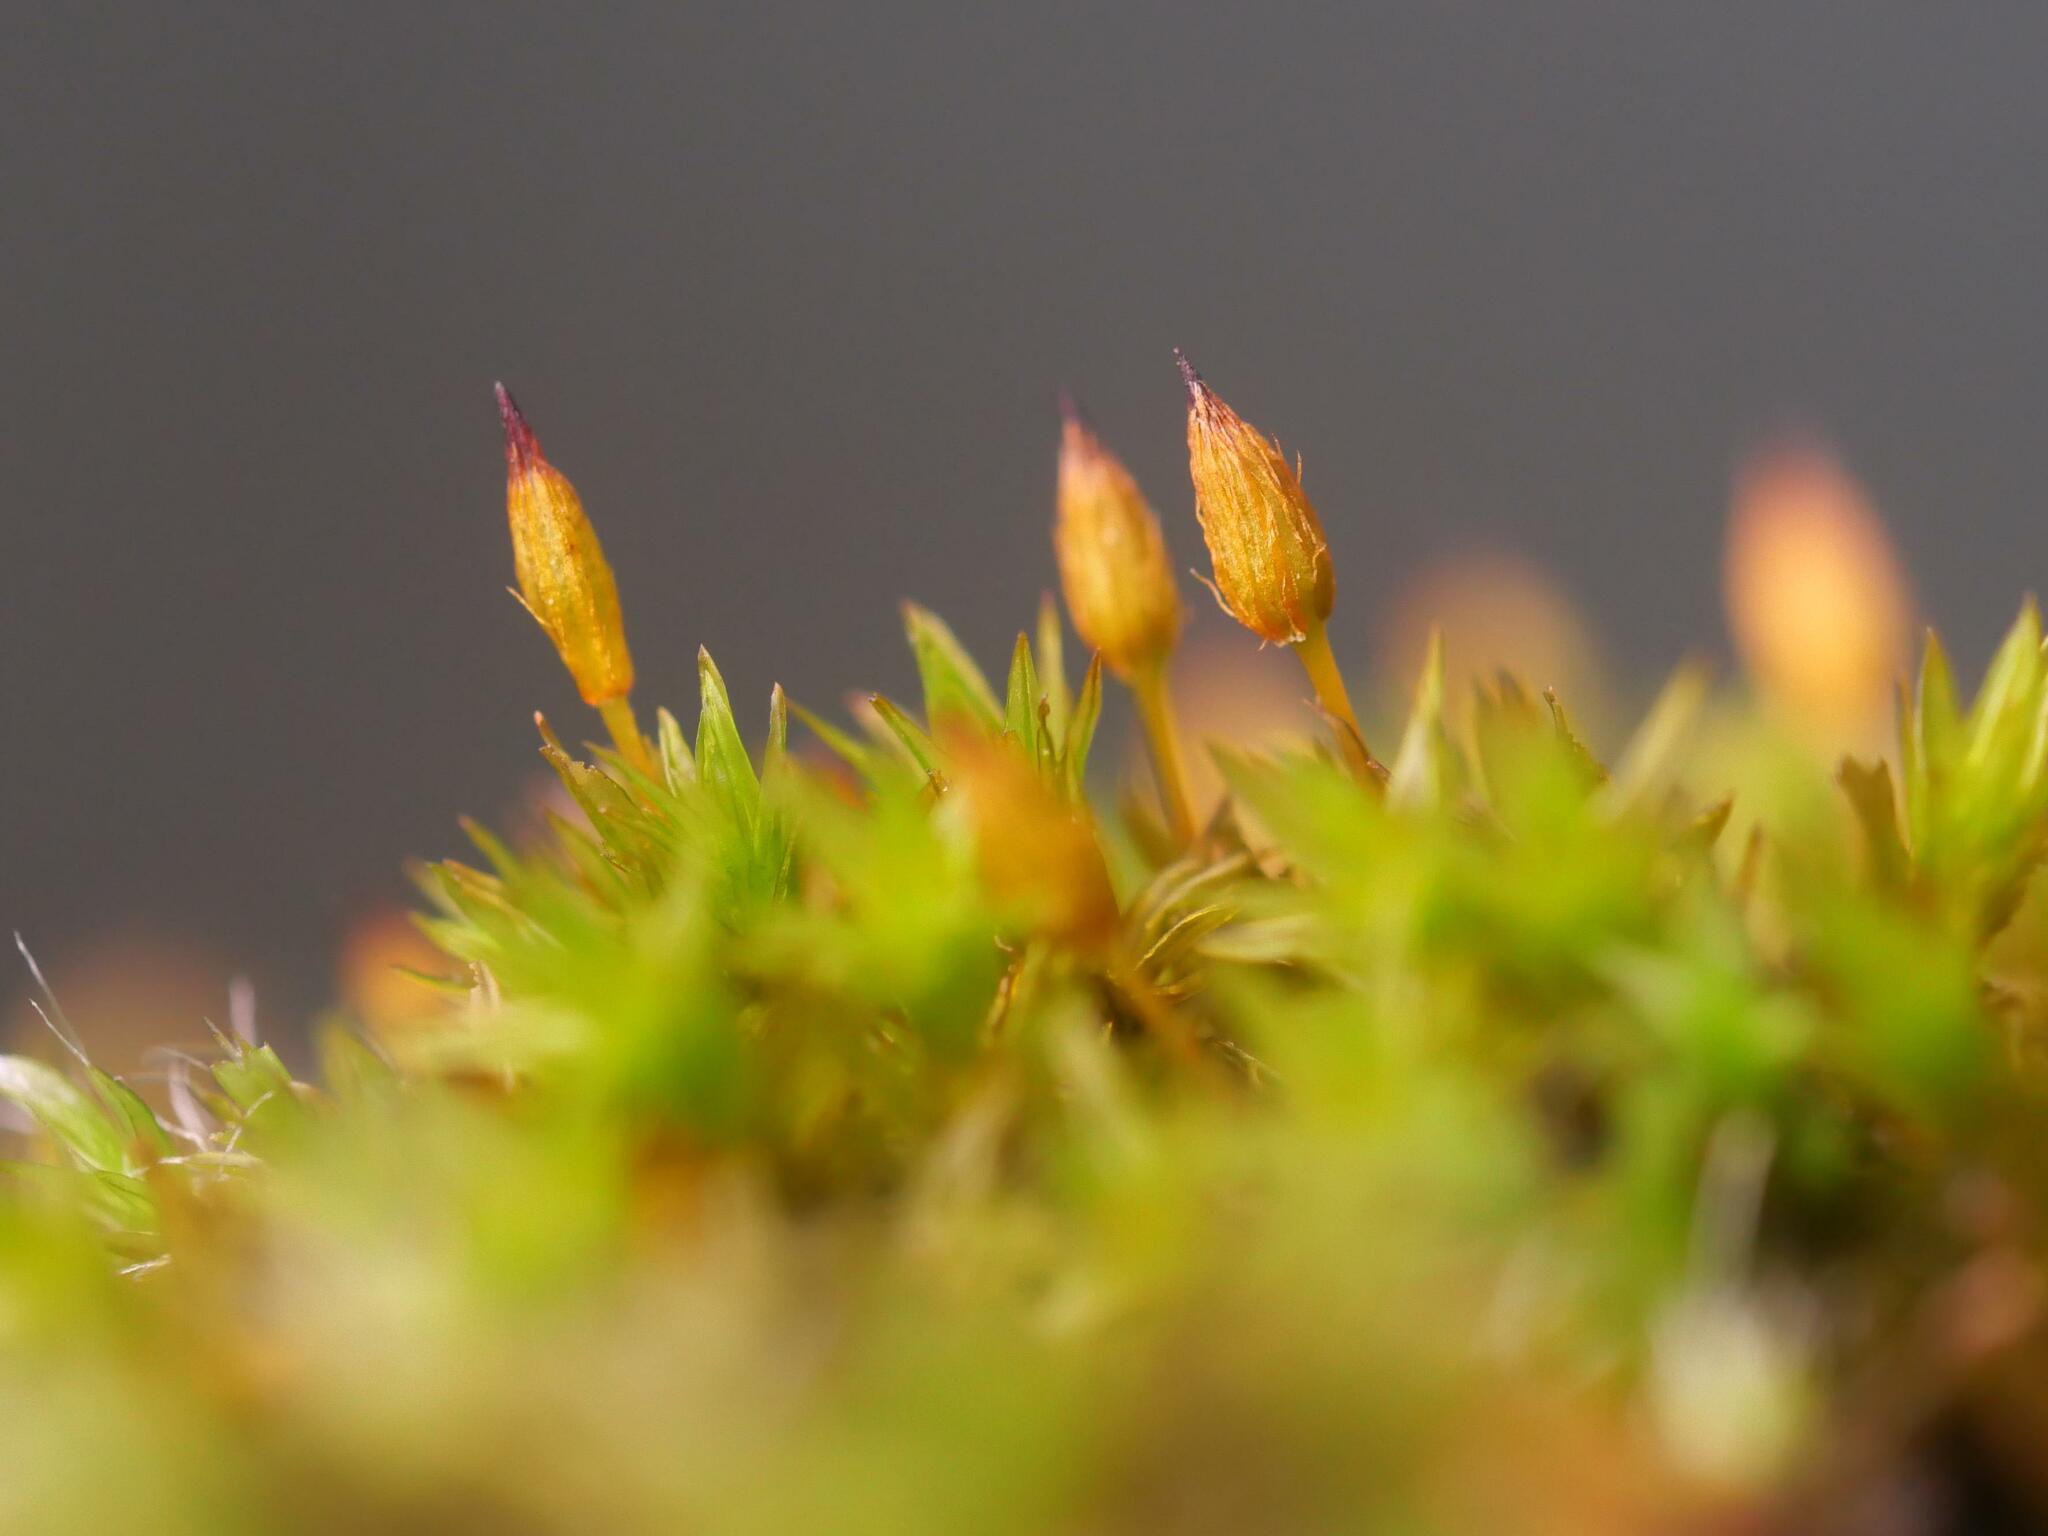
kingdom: Plantae
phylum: Bryophyta
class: Bryopsida
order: Orthotrichales
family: Orthotrichaceae
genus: Orthotrichum
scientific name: Orthotrichum anomalum
